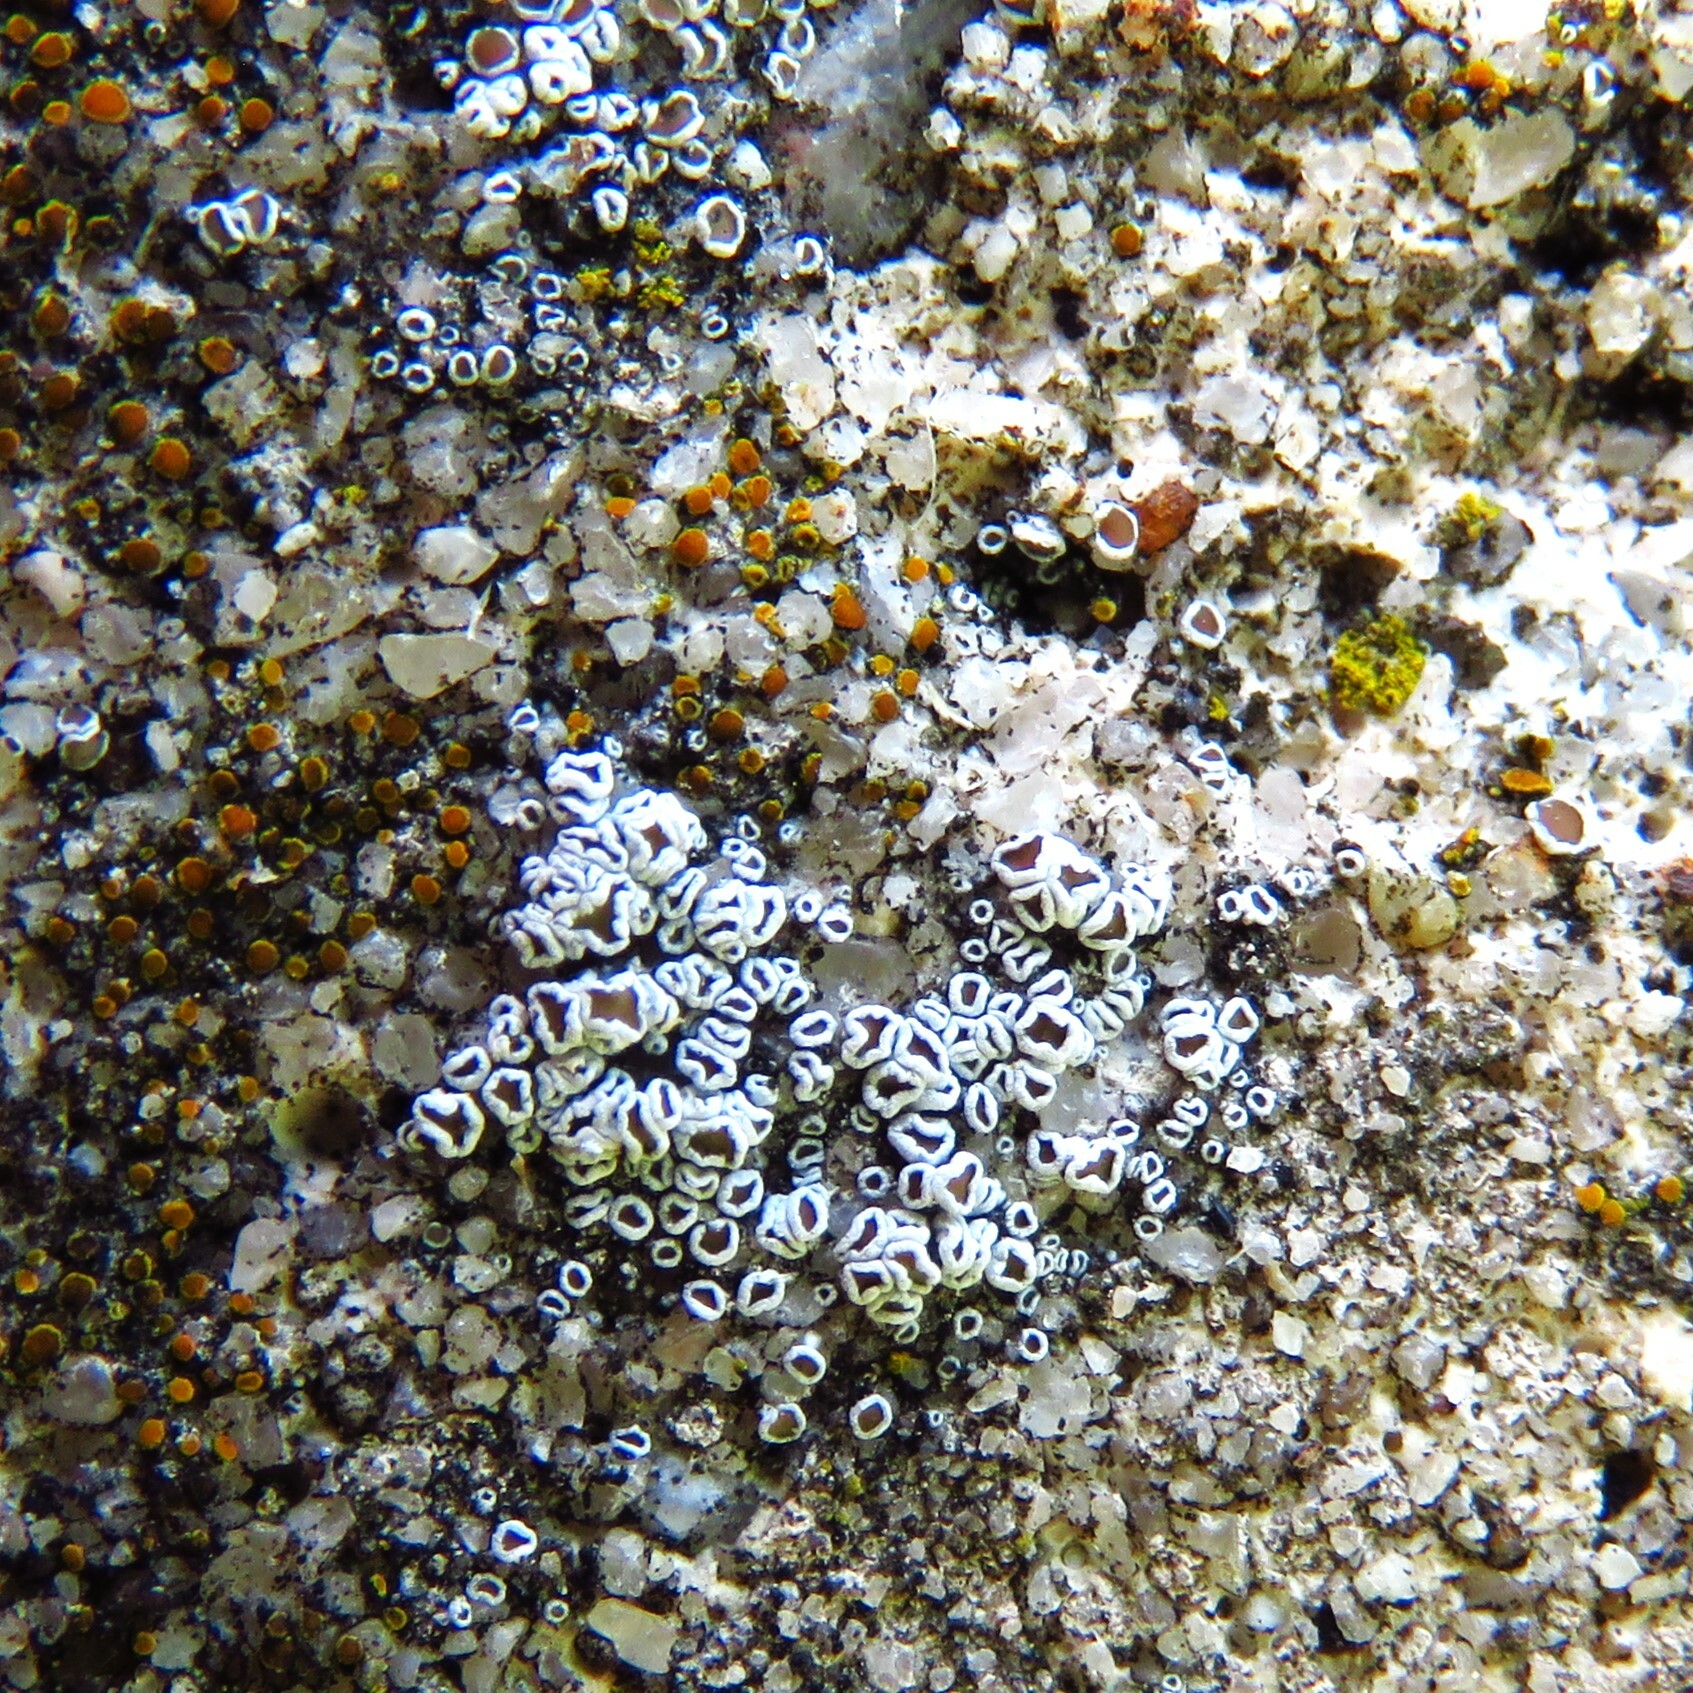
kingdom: Fungi
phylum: Ascomycota
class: Lecanoromycetes
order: Lecanorales
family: Lecanoraceae
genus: Polyozosia
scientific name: Polyozosia dispersa
